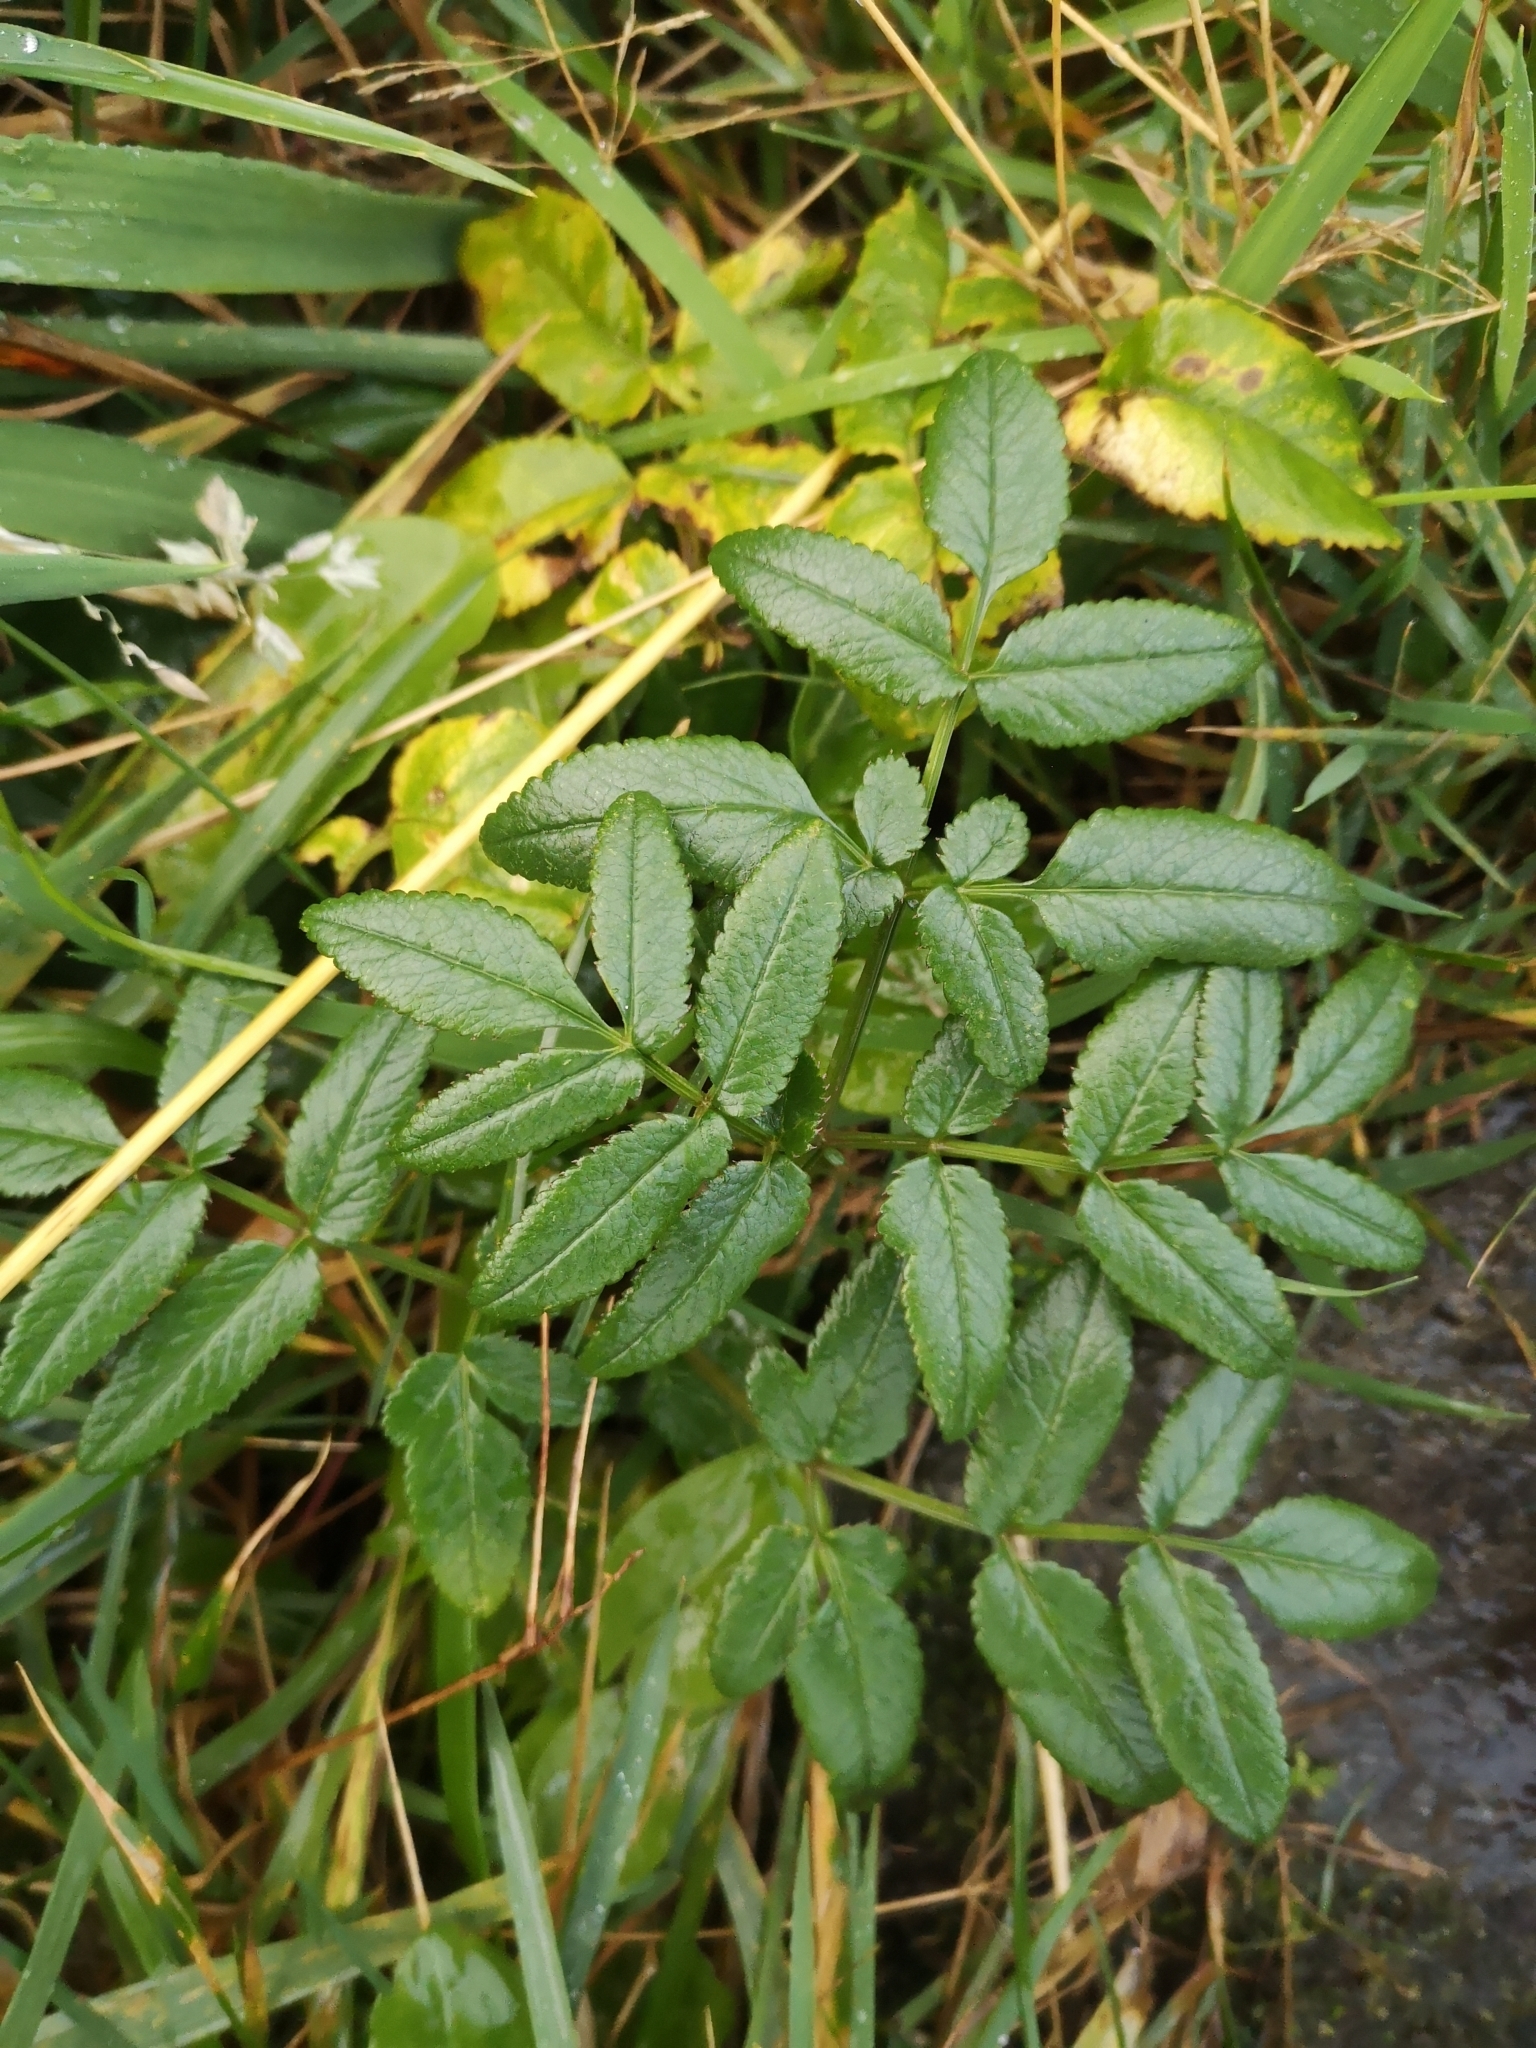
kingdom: Plantae
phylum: Tracheophyta
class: Magnoliopsida
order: Apiales
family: Apiaceae
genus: Angelica
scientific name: Angelica sylvestris
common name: Wild angelica
